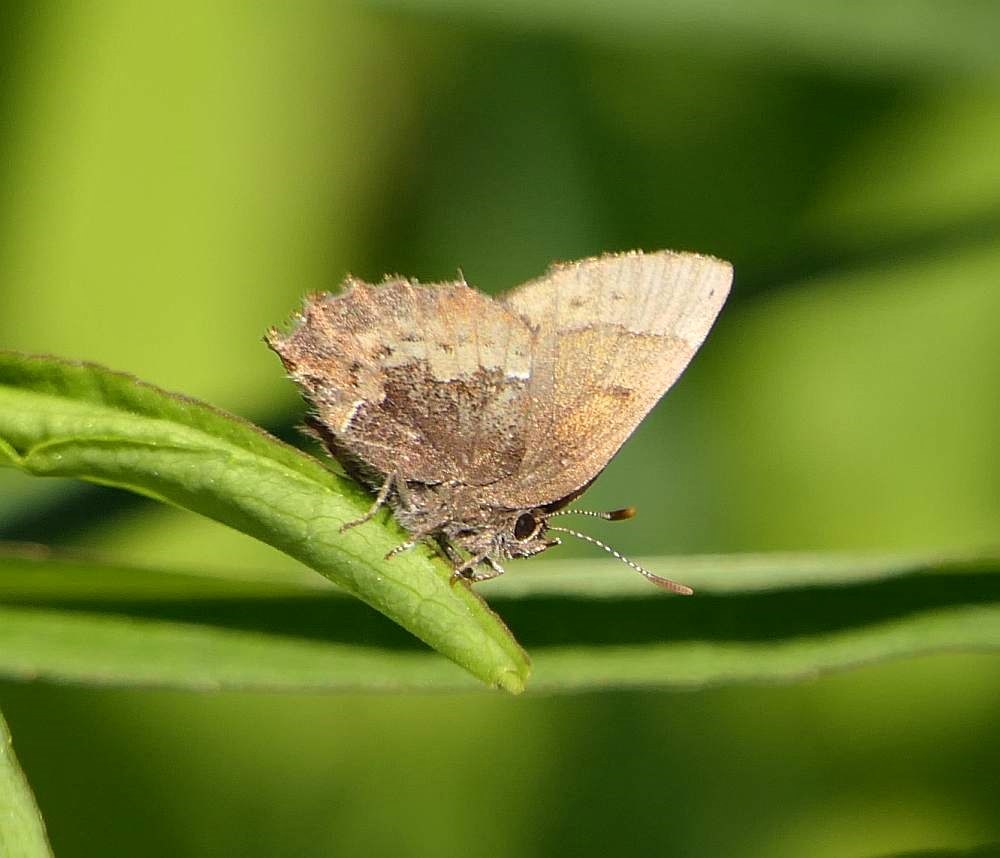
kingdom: Animalia
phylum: Arthropoda
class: Insecta
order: Lepidoptera
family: Lycaenidae
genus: Incisalia
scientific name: Incisalia henrici
